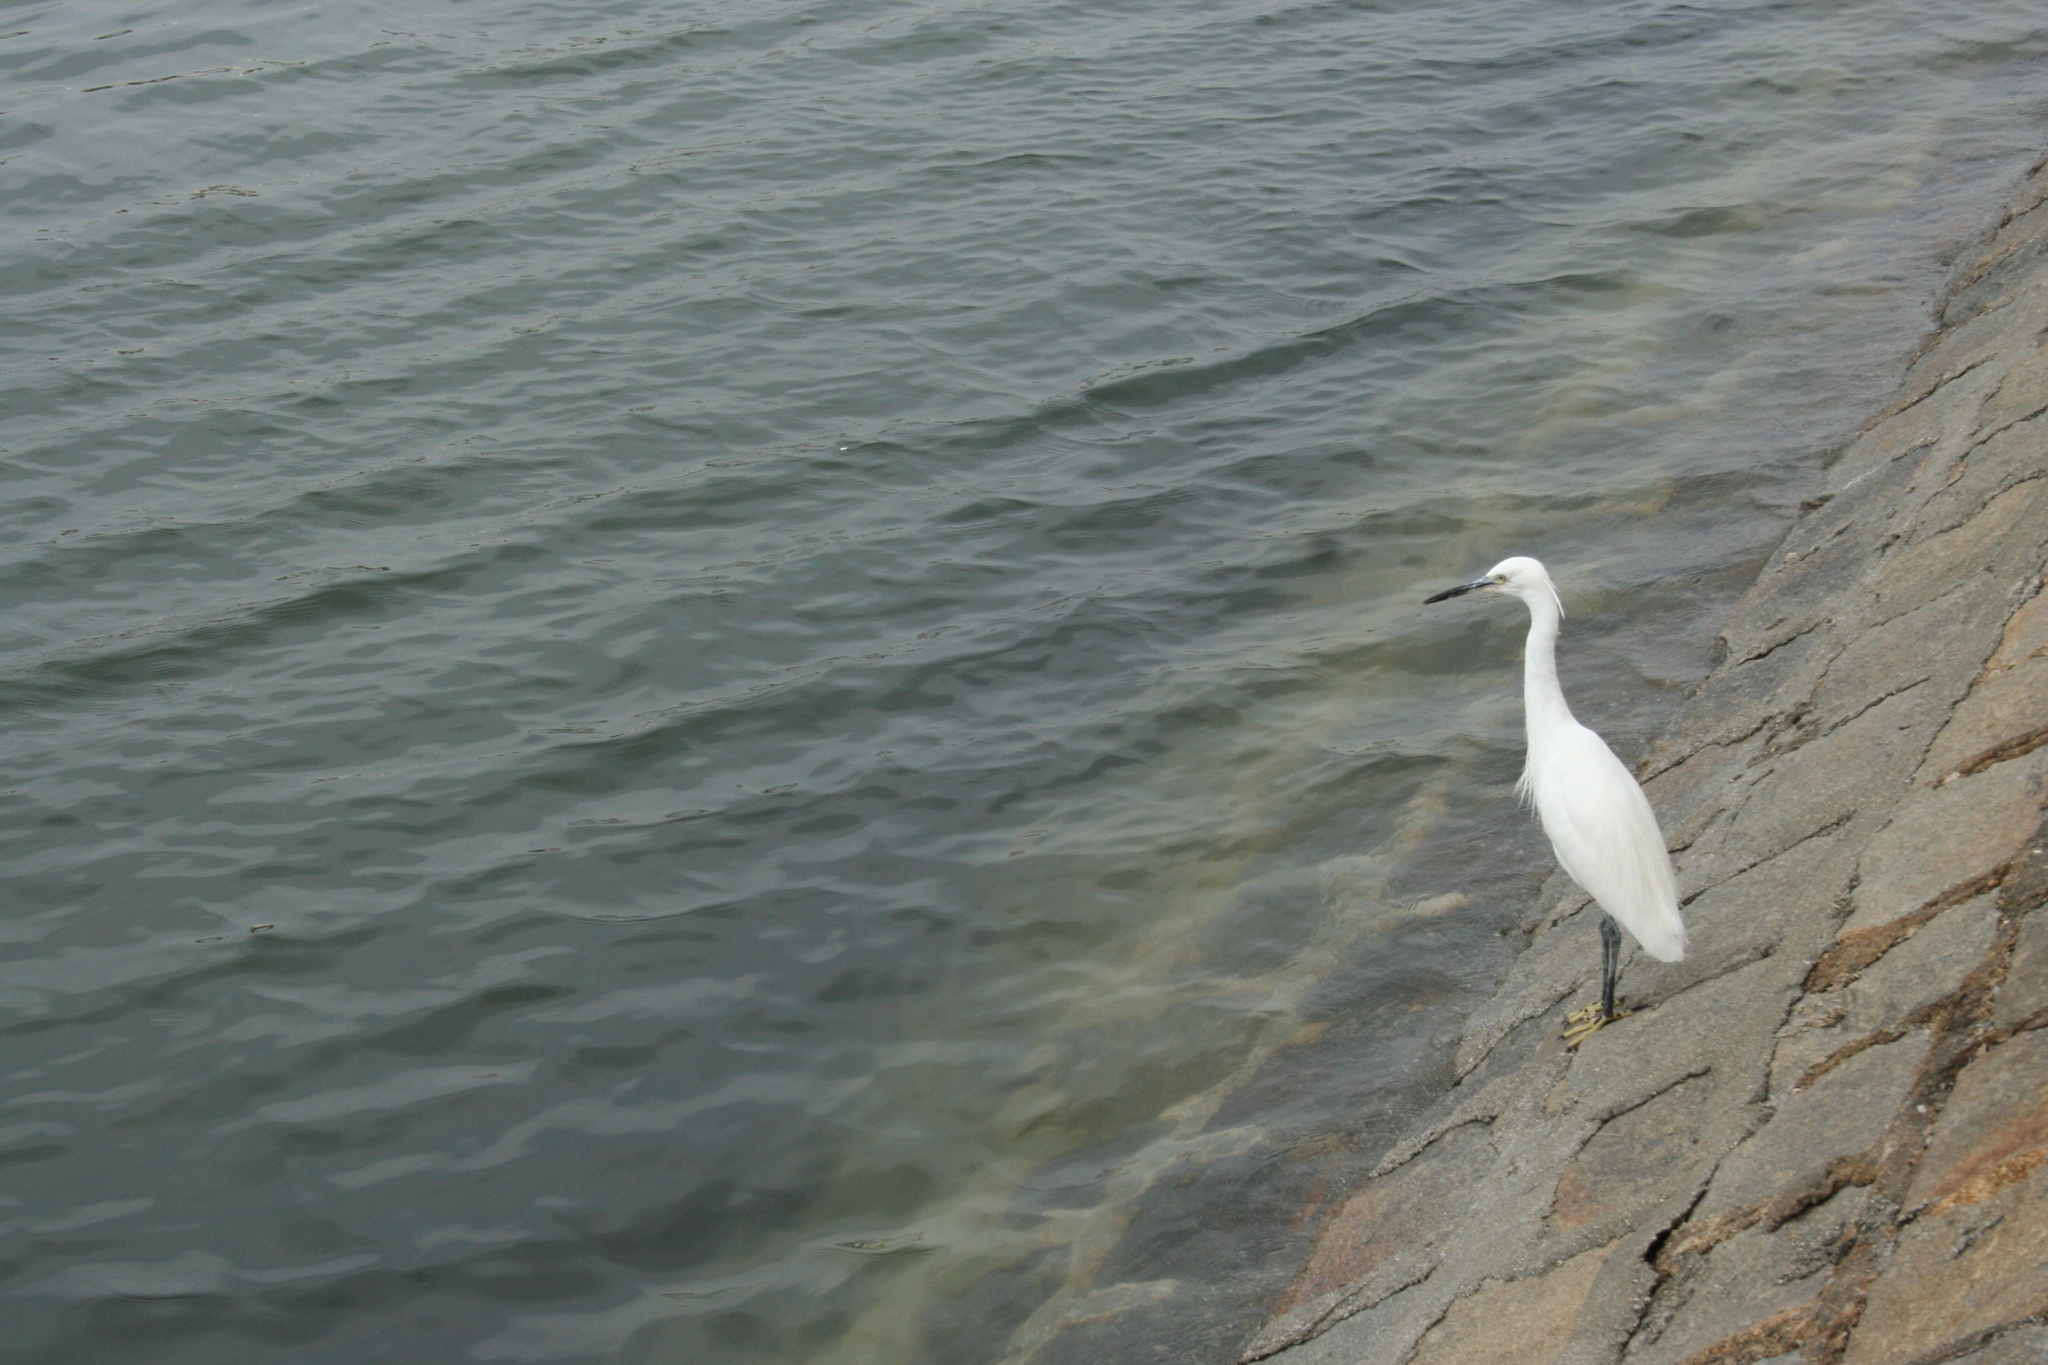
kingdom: Animalia
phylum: Chordata
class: Aves
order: Pelecaniformes
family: Ardeidae
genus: Egretta
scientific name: Egretta garzetta
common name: Little egret
